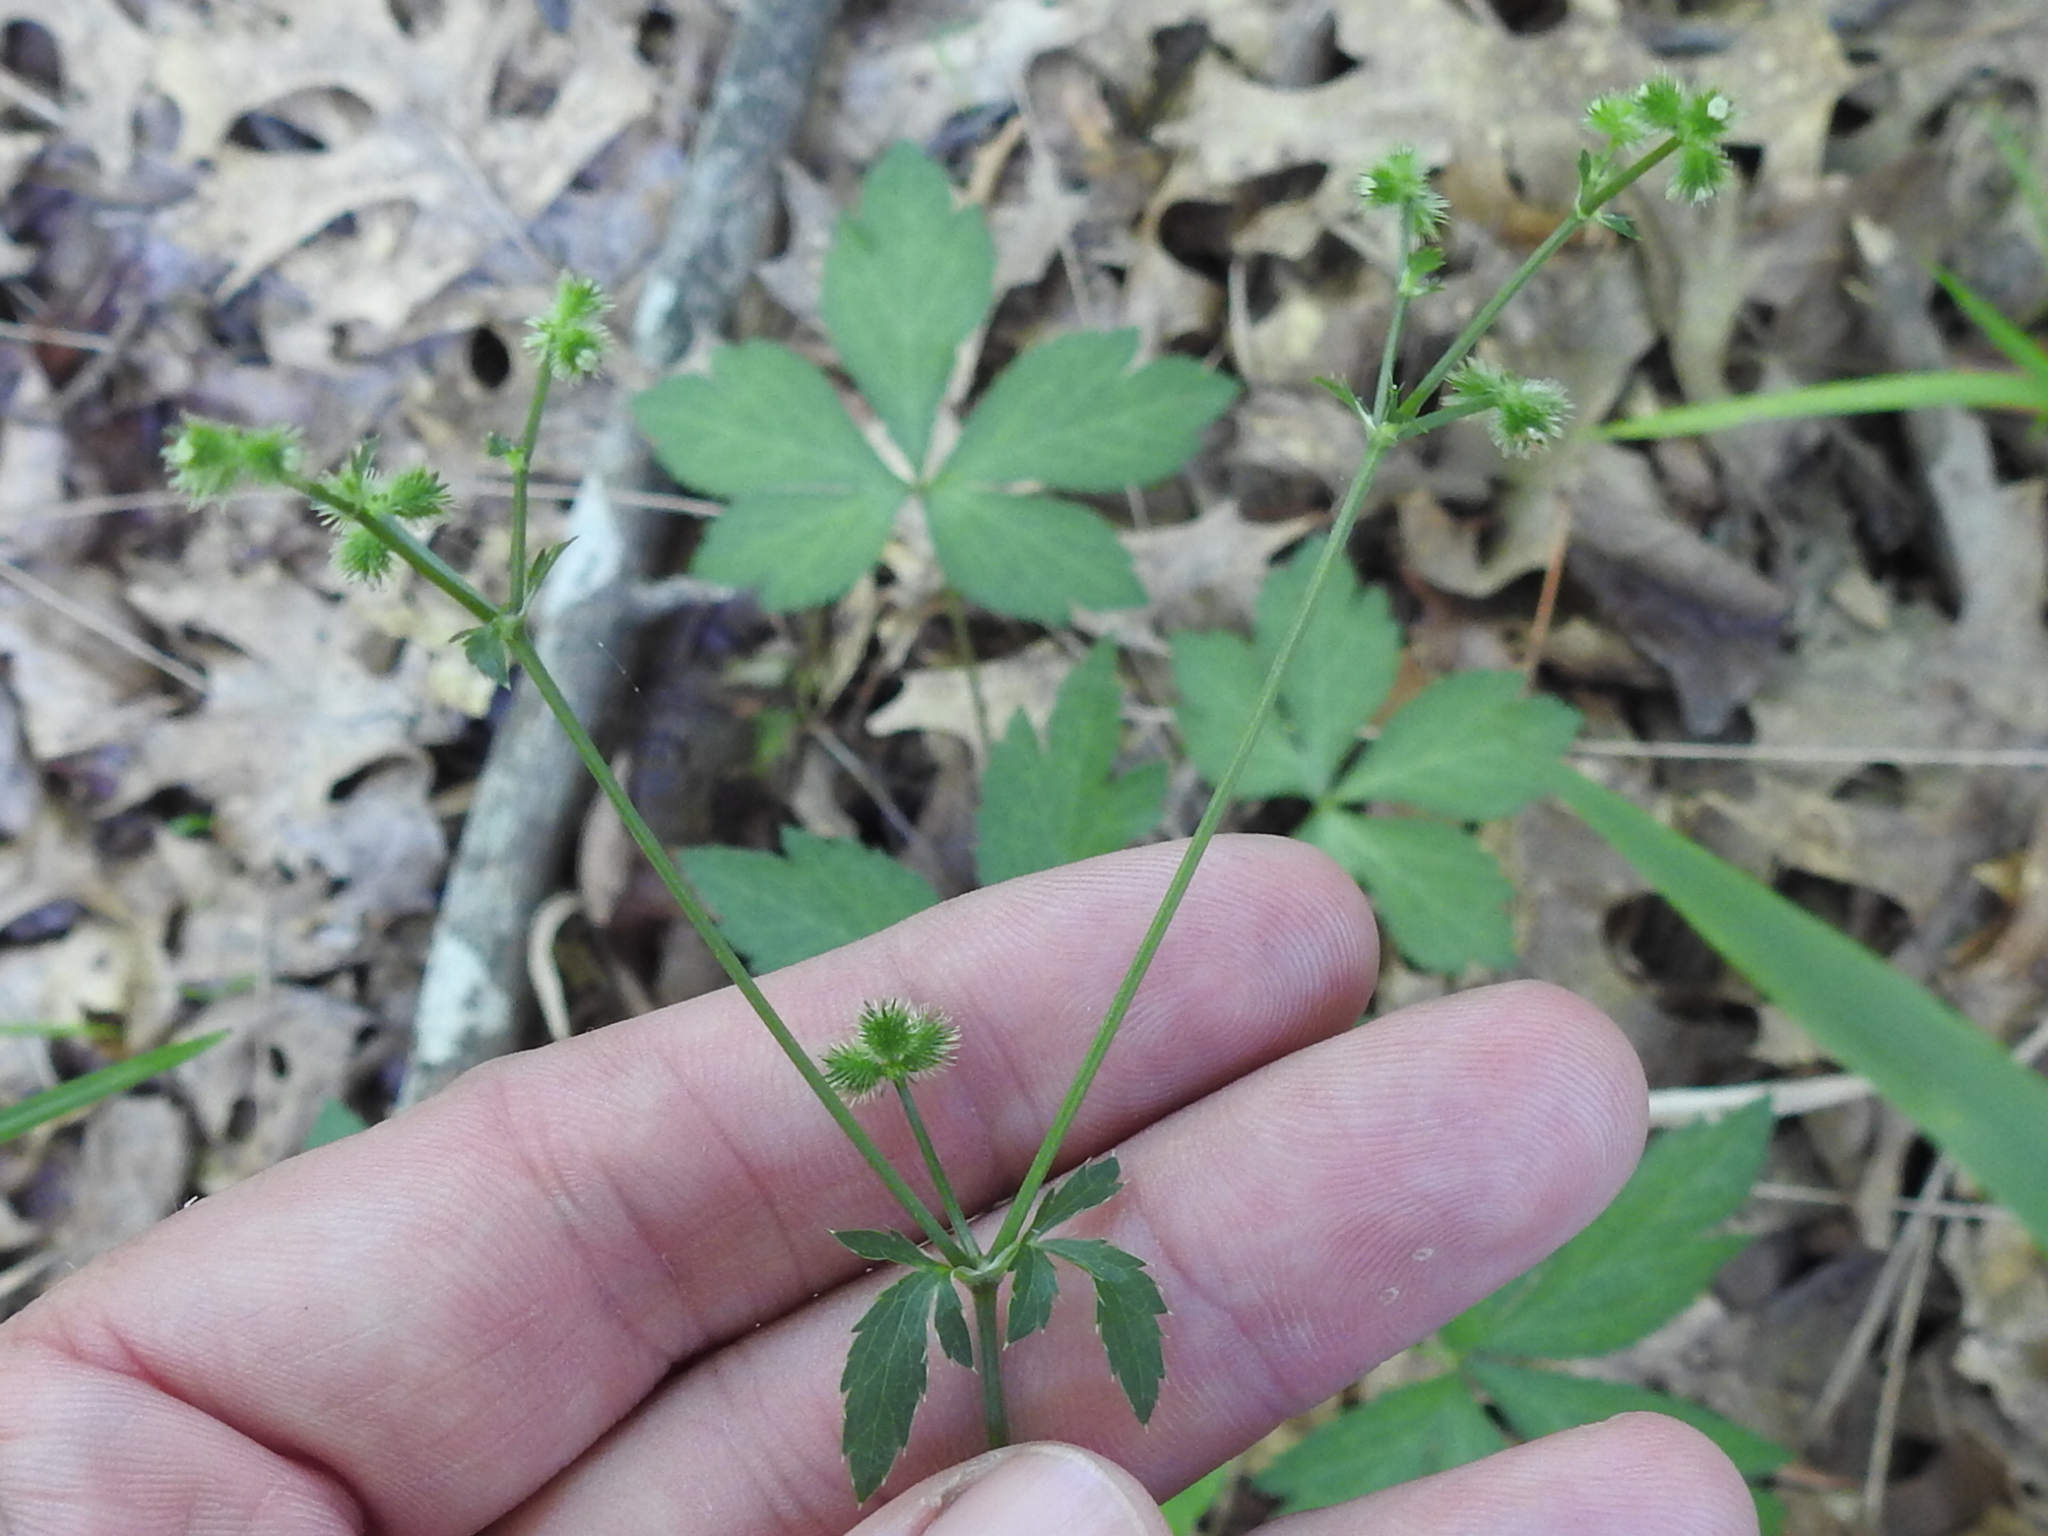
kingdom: Plantae
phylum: Tracheophyta
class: Magnoliopsida
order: Apiales
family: Apiaceae
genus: Sanicula
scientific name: Sanicula canadensis
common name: Canada sanicle
